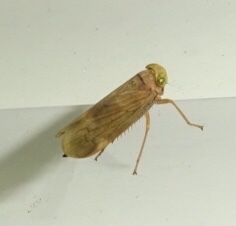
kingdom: Animalia
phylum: Arthropoda
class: Insecta
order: Hemiptera
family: Cicadellidae
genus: Jikradia
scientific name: Jikradia olitoria
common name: Coppery leafhopper
